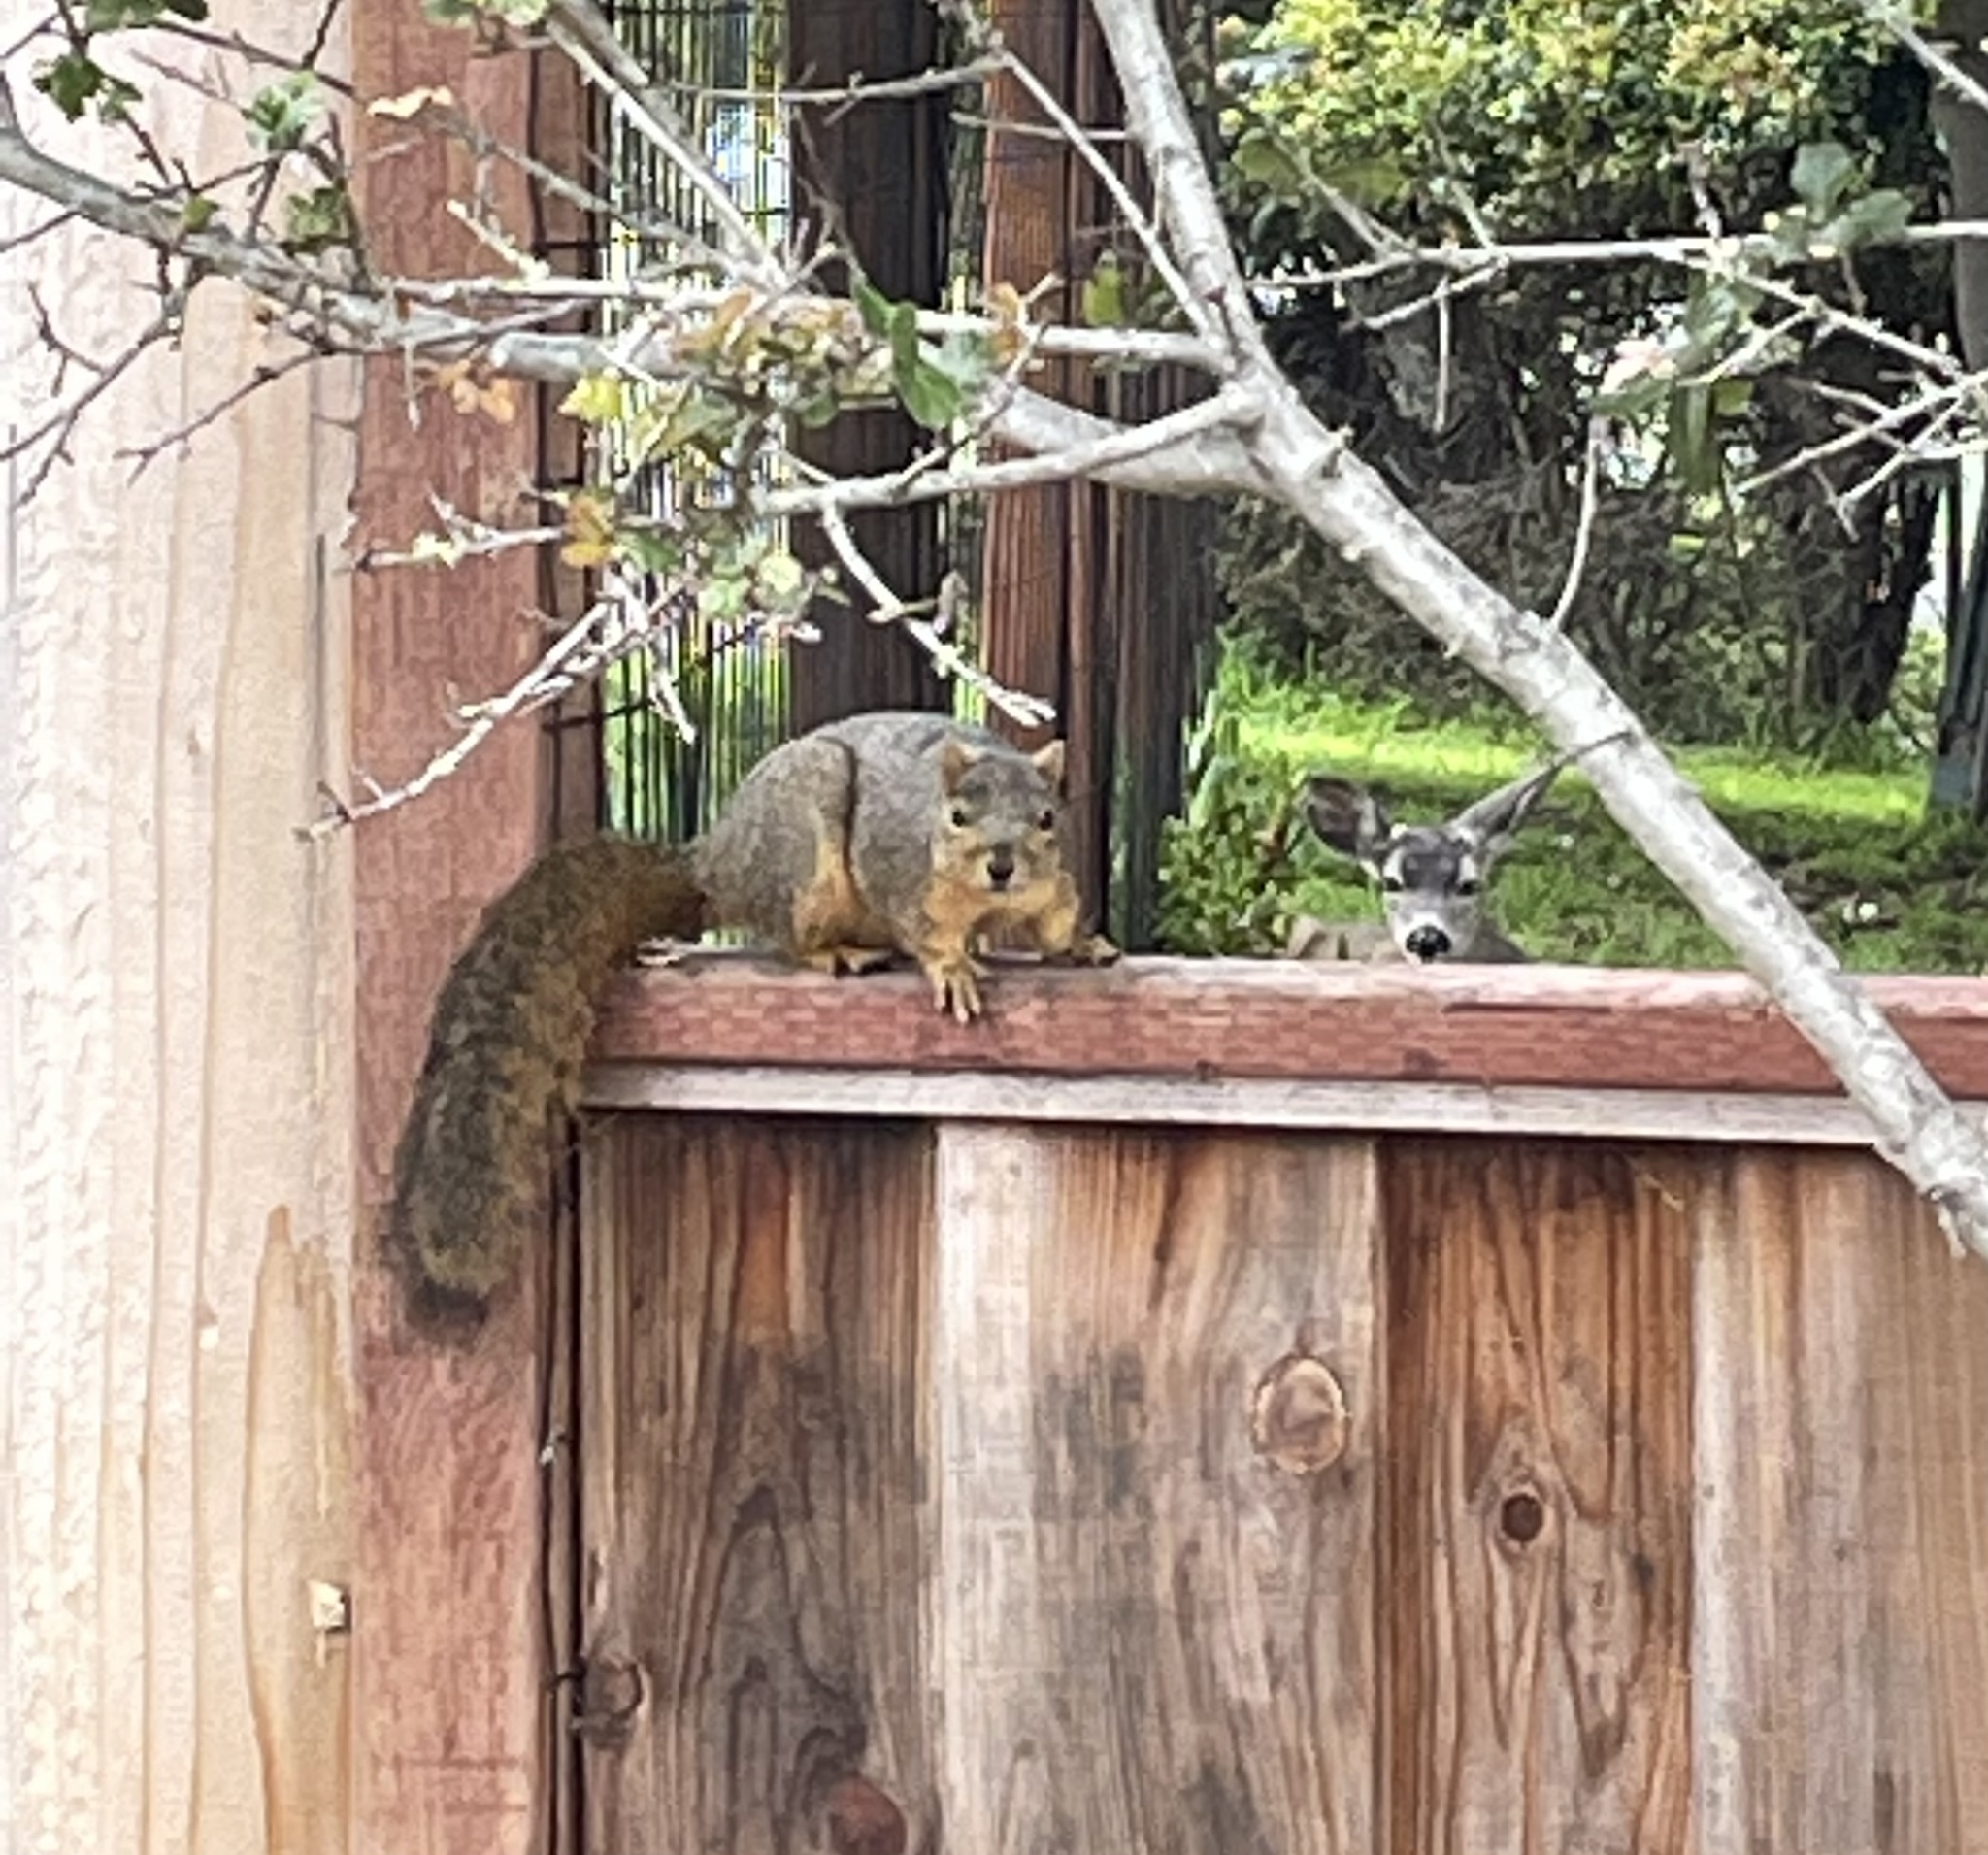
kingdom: Animalia
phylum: Chordata
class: Mammalia
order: Rodentia
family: Sciuridae
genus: Sciurus
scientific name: Sciurus niger
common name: Fox squirrel
